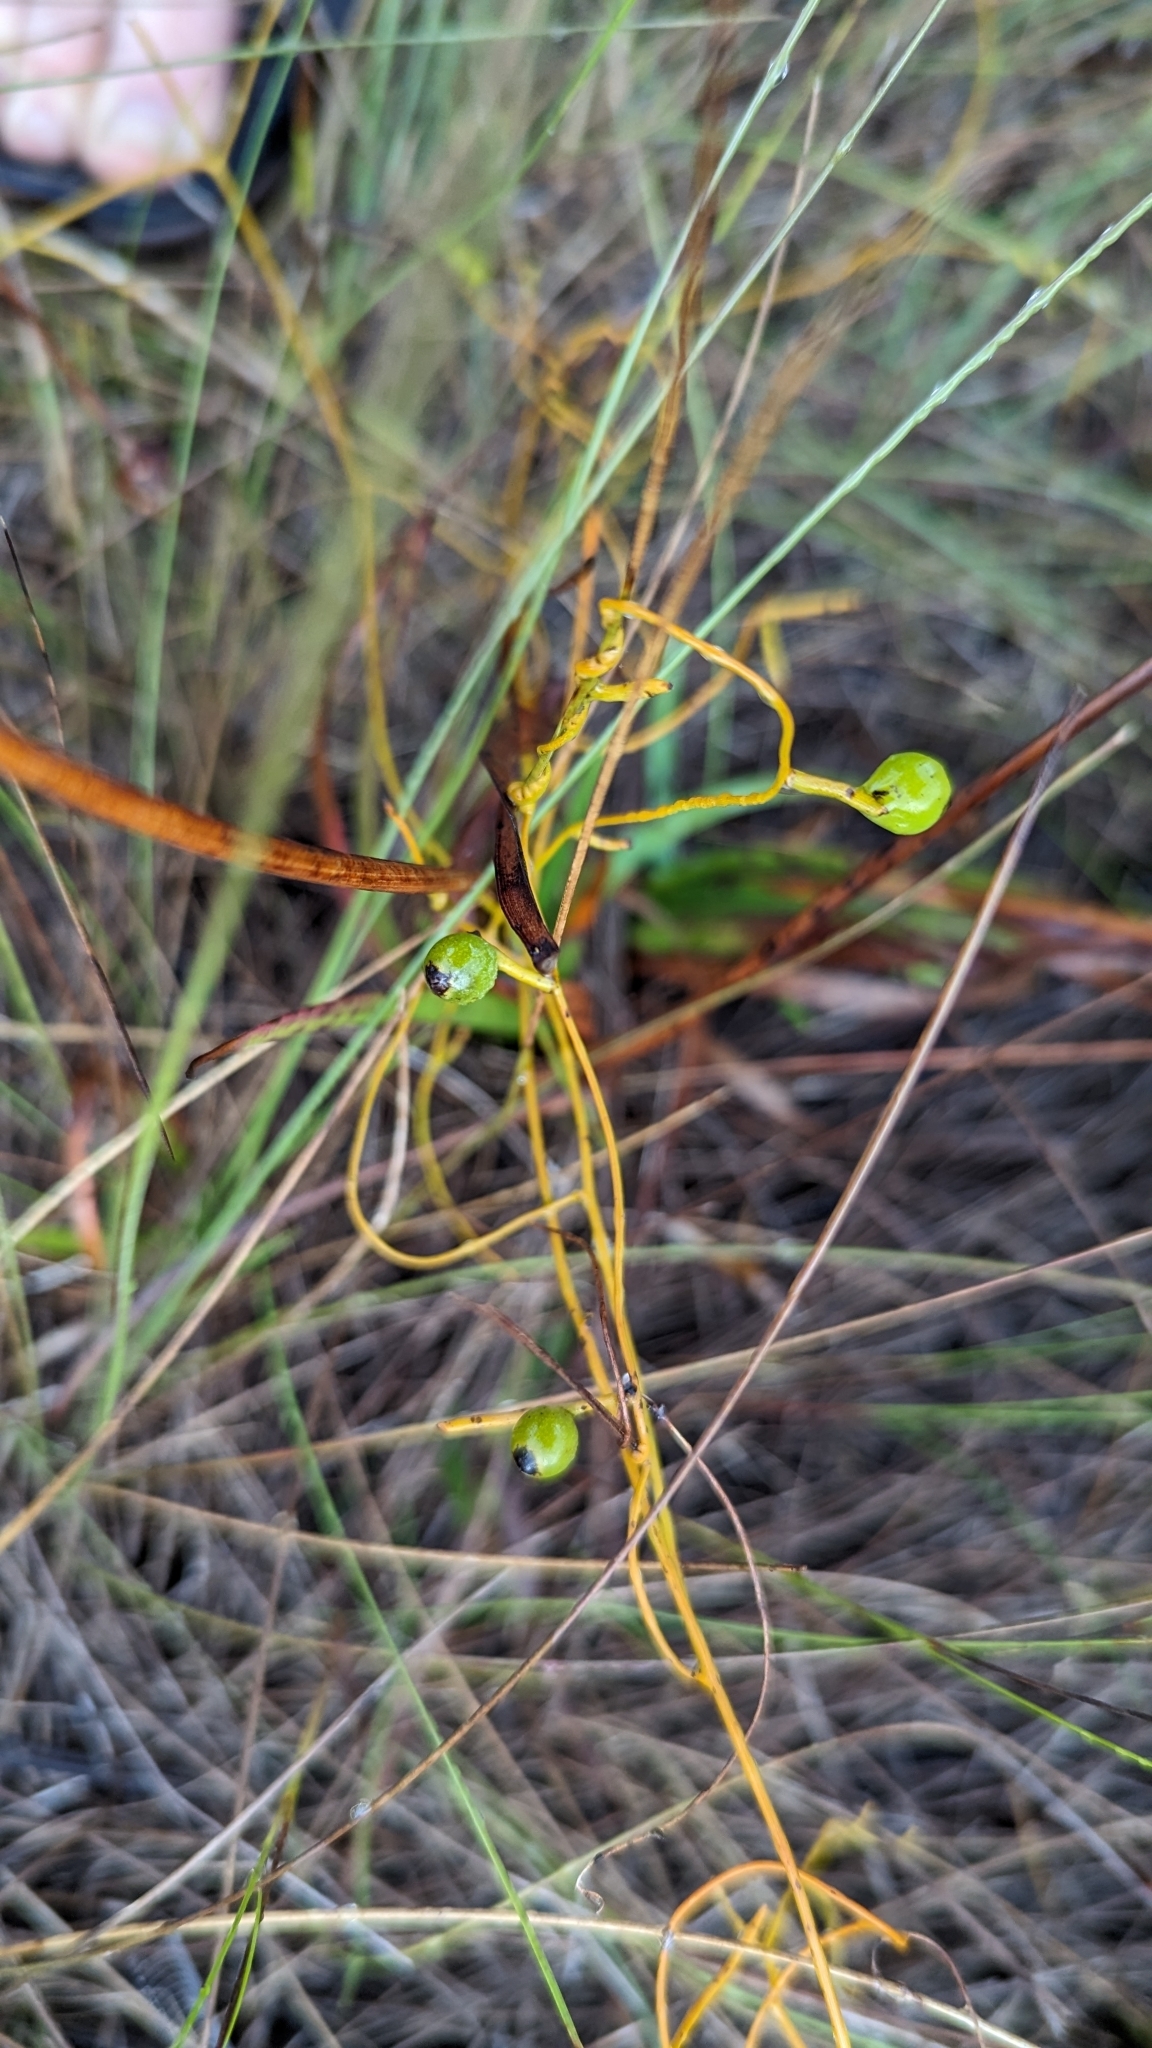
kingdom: Plantae
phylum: Tracheophyta
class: Magnoliopsida
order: Laurales
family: Lauraceae
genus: Cassytha
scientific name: Cassytha filiformis
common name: Dodder-laurel
